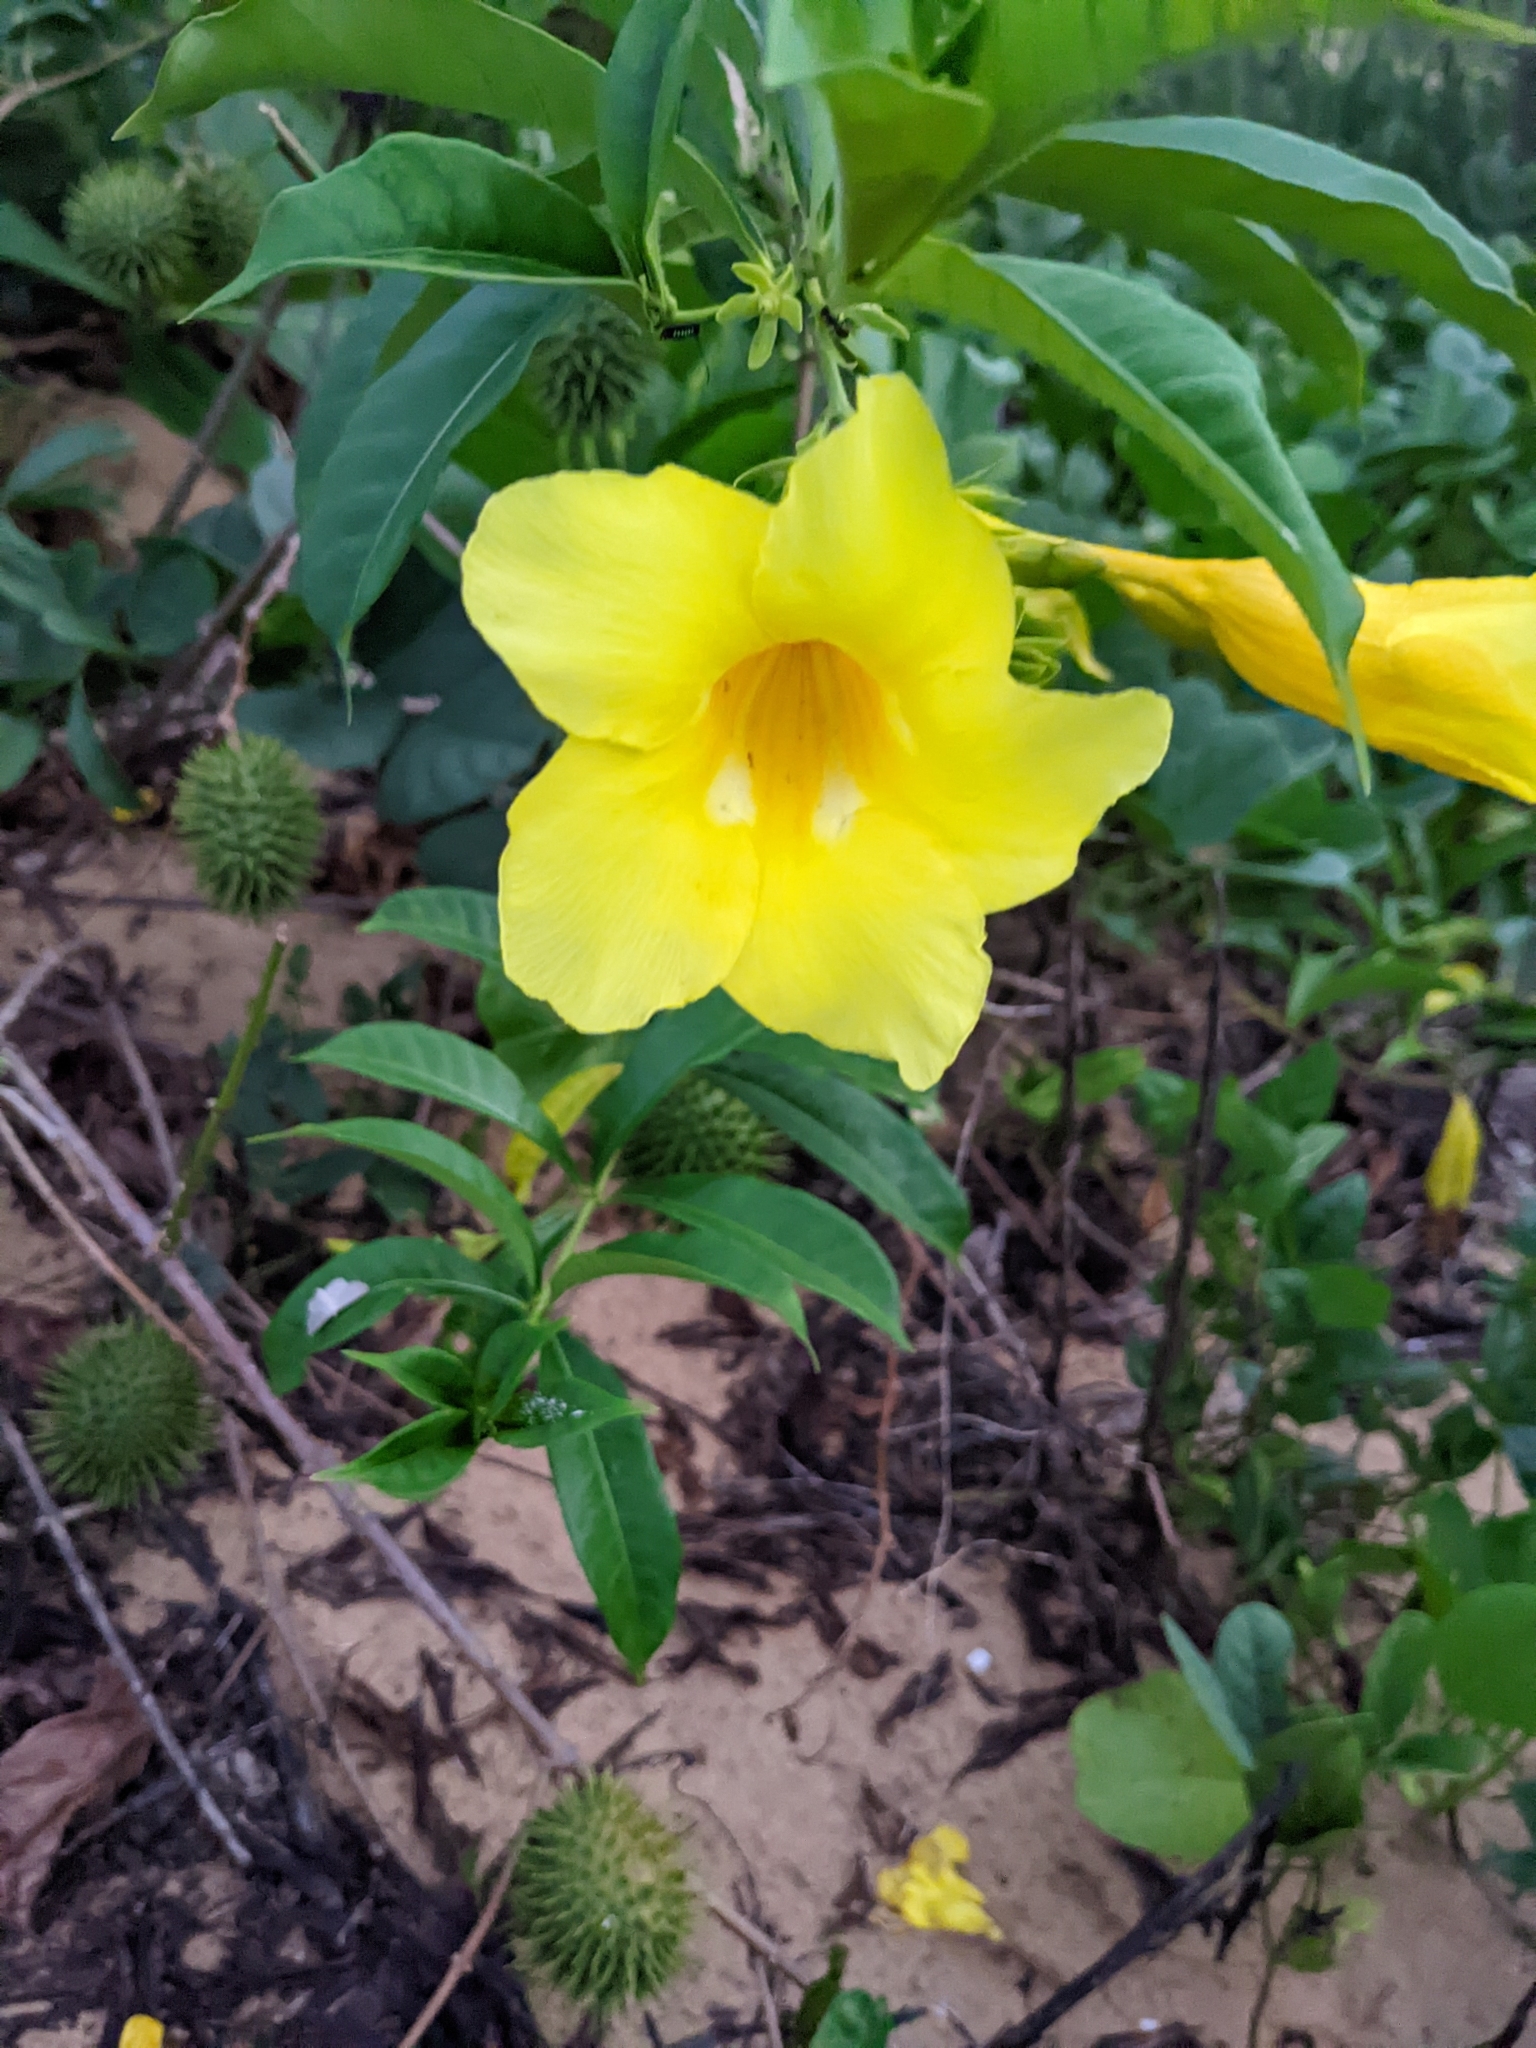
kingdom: Plantae
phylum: Tracheophyta
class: Magnoliopsida
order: Gentianales
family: Apocynaceae
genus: Allamanda
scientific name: Allamanda cathartica
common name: Golden trumpet
